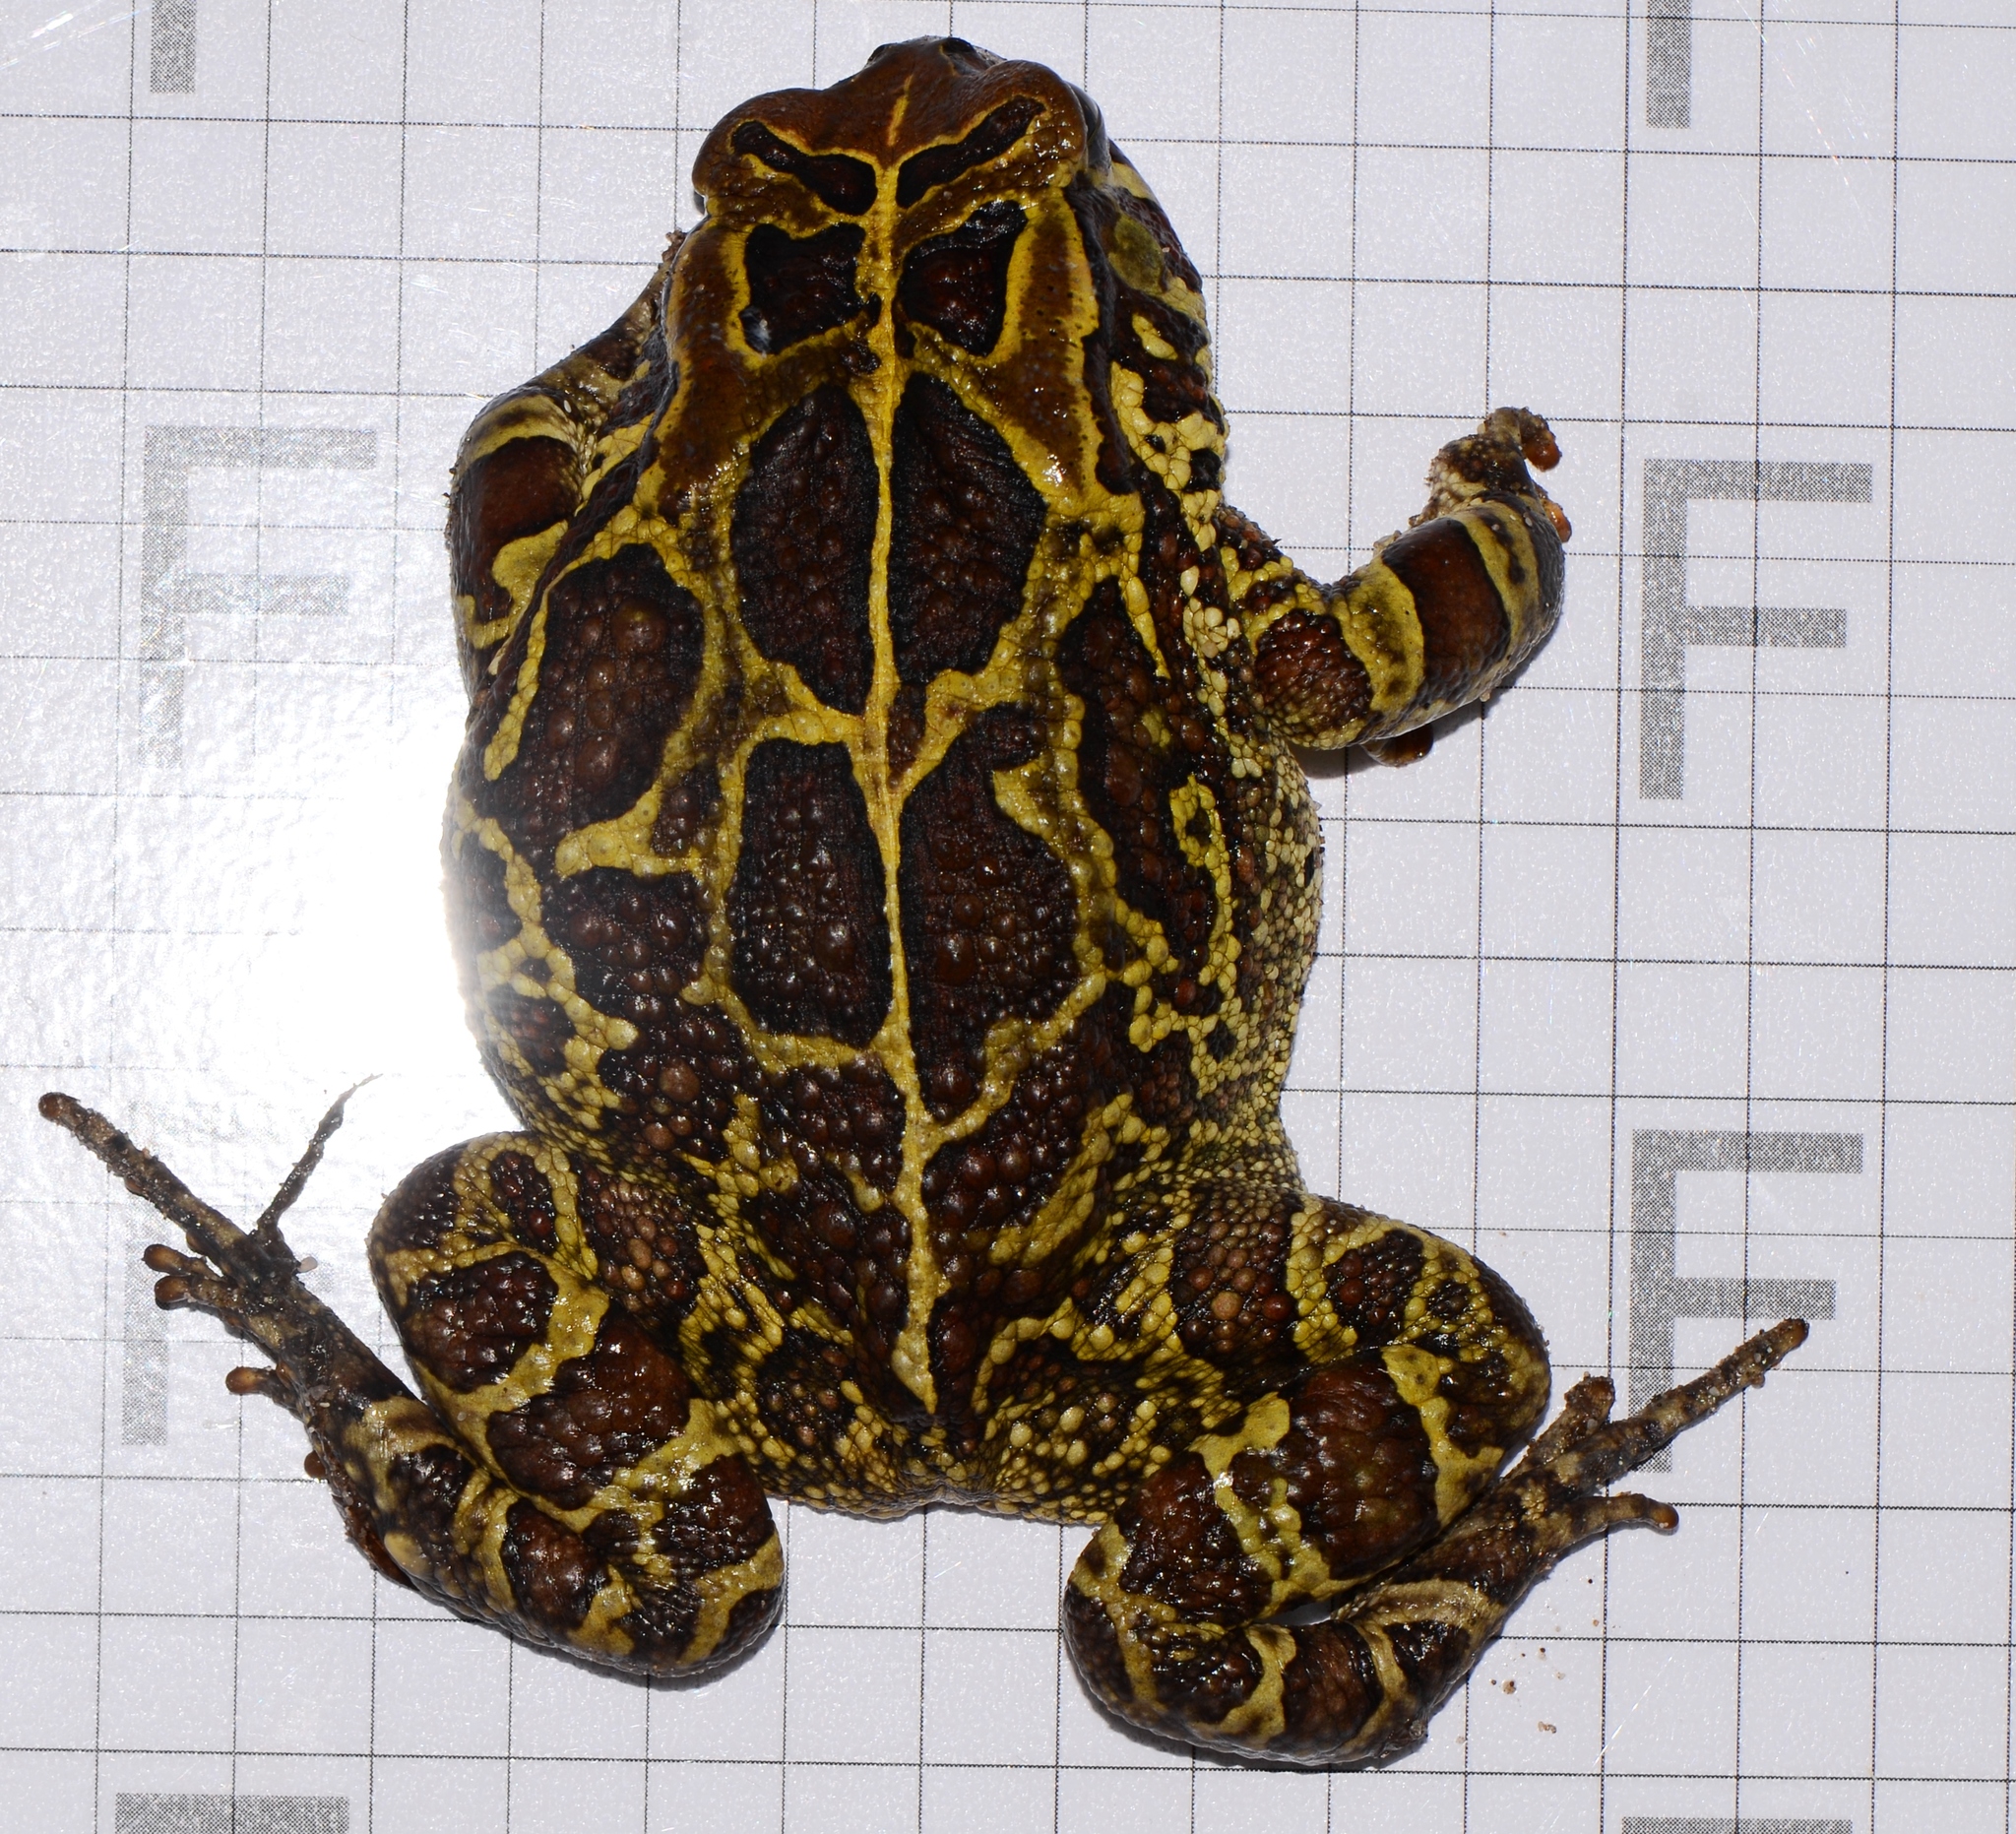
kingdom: Animalia
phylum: Chordata
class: Amphibia
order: Anura
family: Bufonidae
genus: Sclerophrys
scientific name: Sclerophrys pantherina
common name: Panther toad
